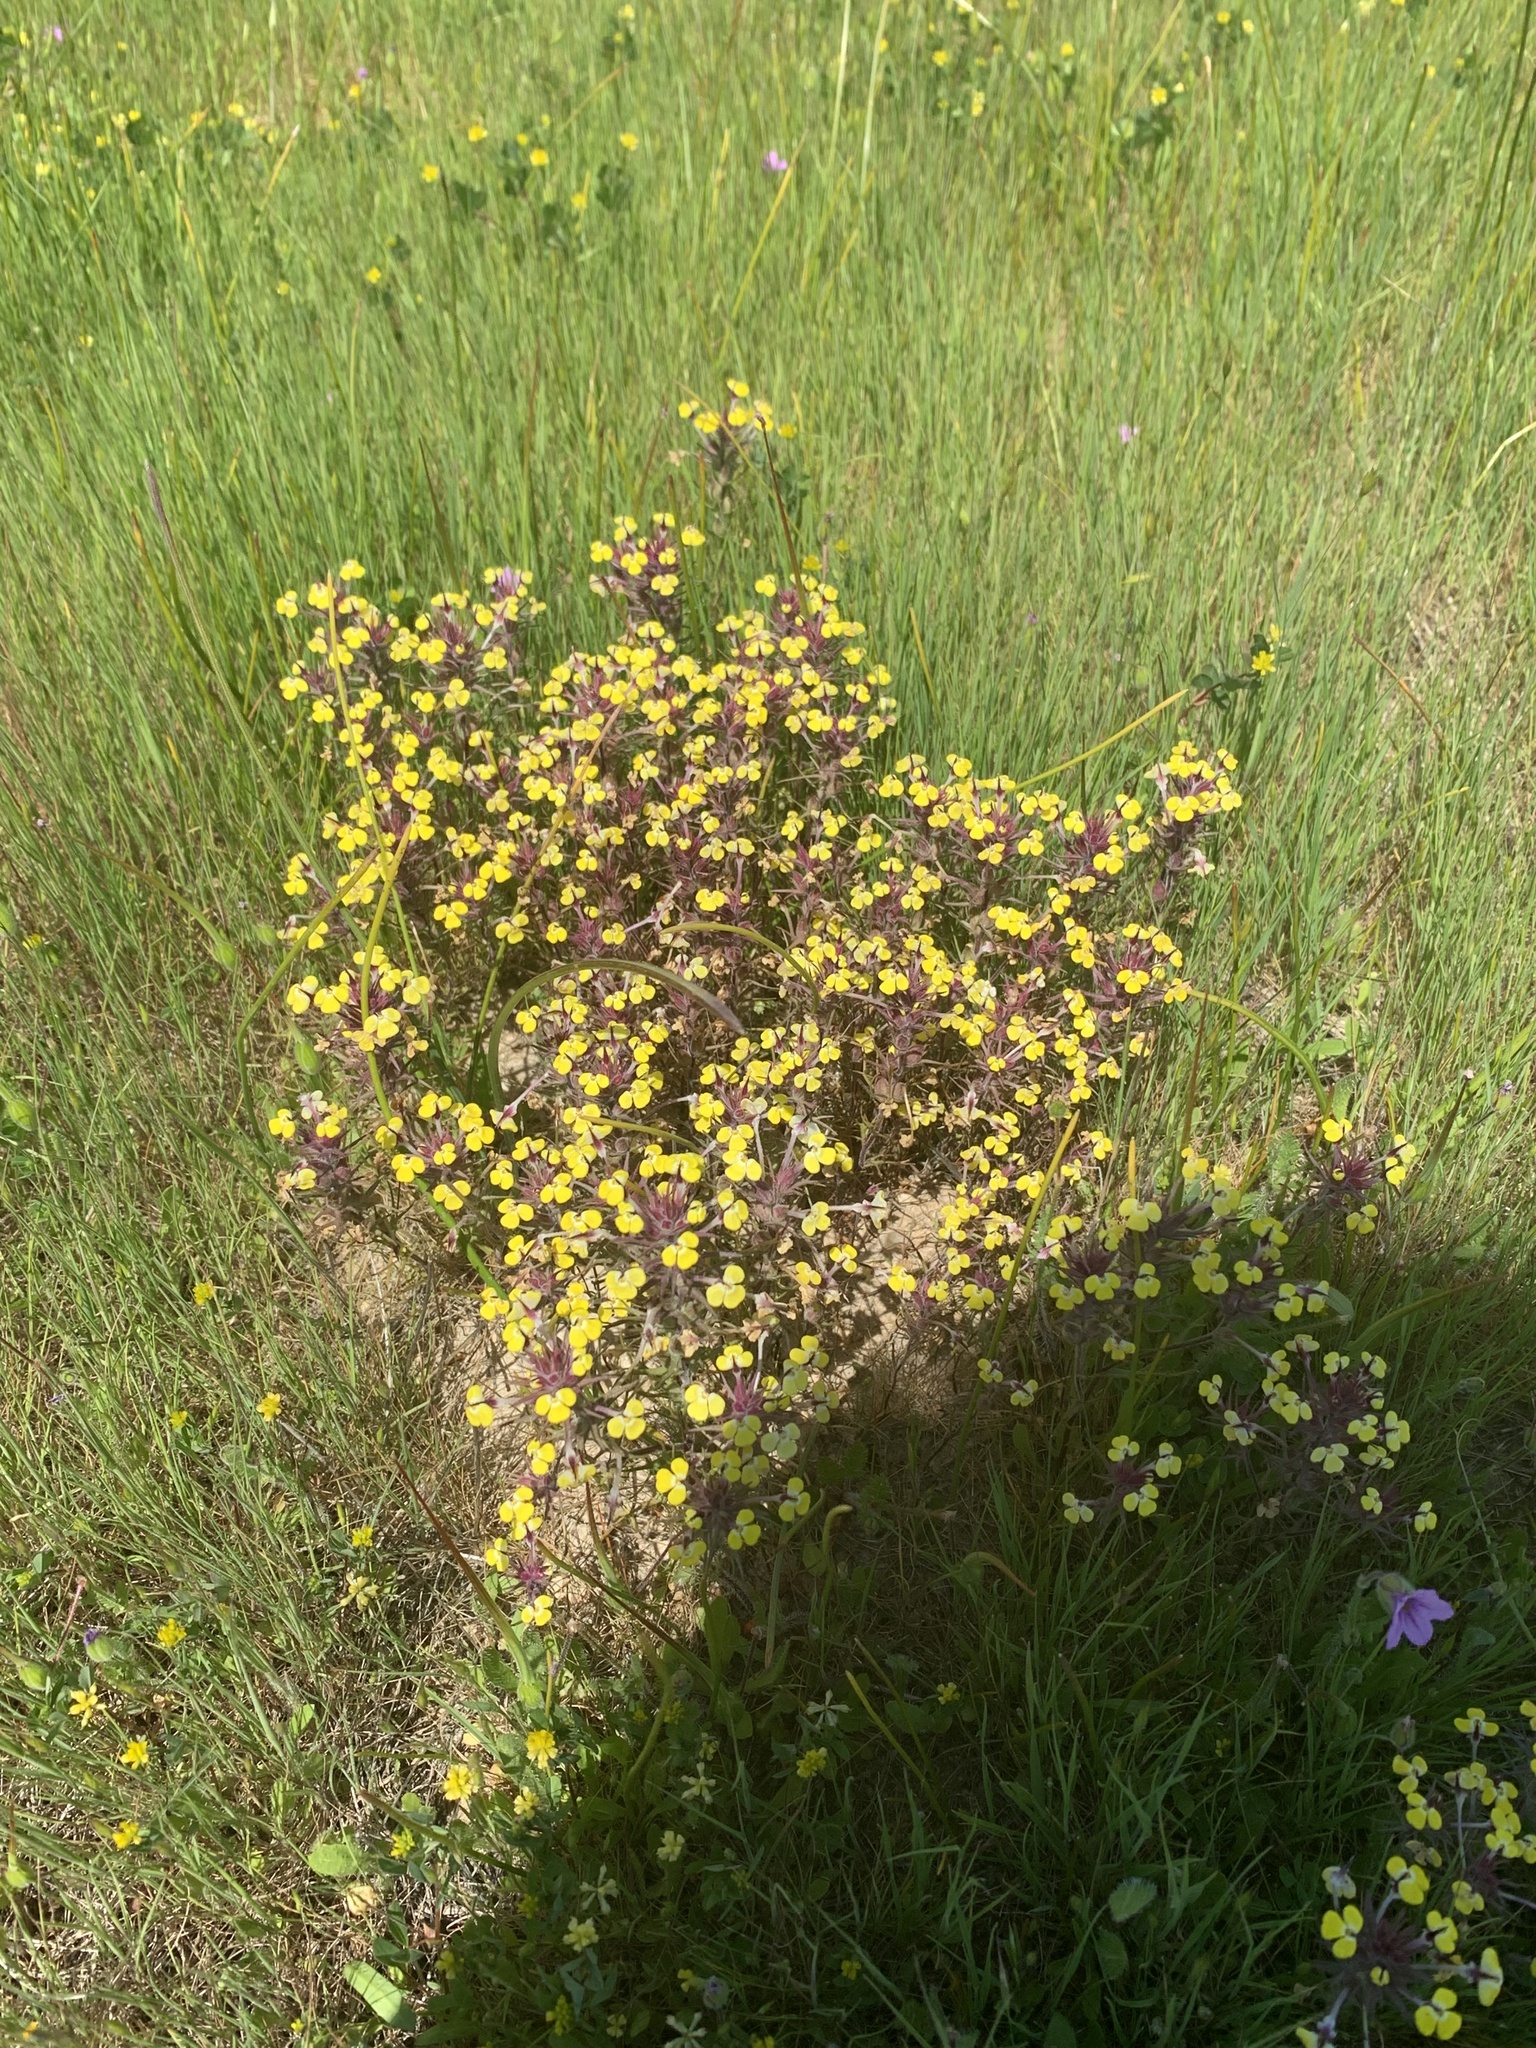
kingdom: Plantae
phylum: Tracheophyta
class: Magnoliopsida
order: Lamiales
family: Orobanchaceae
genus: Triphysaria
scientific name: Triphysaria eriantha
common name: Johnny-tuck
